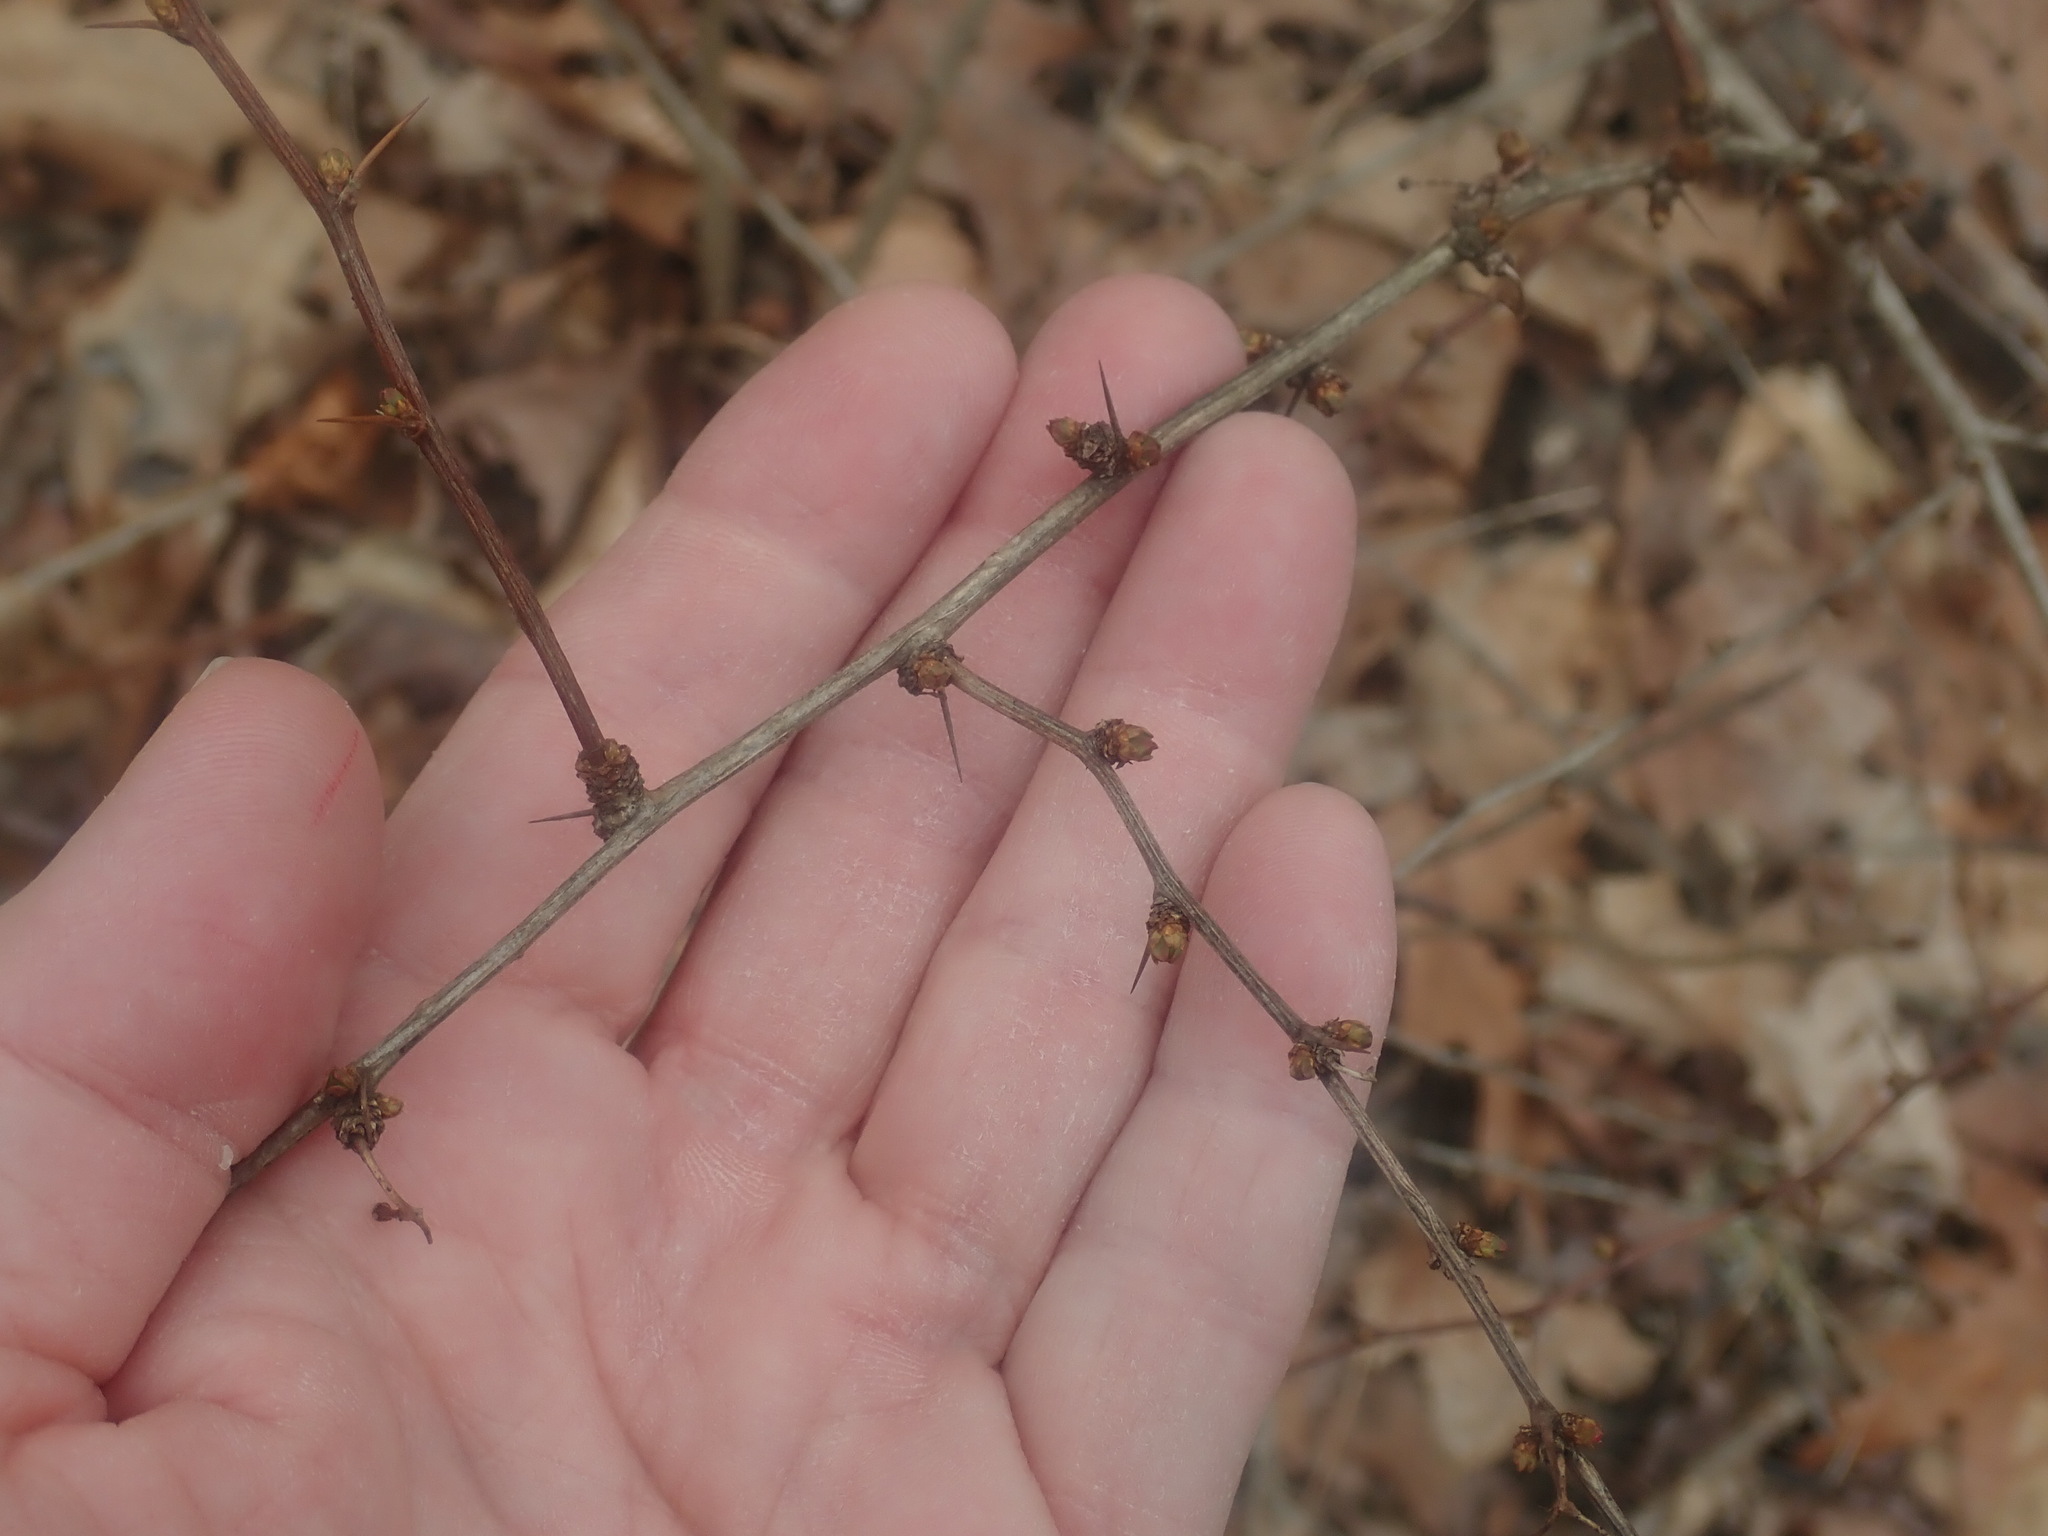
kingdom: Plantae
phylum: Tracheophyta
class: Magnoliopsida
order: Ranunculales
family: Berberidaceae
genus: Berberis
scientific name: Berberis thunbergii
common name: Japanese barberry
